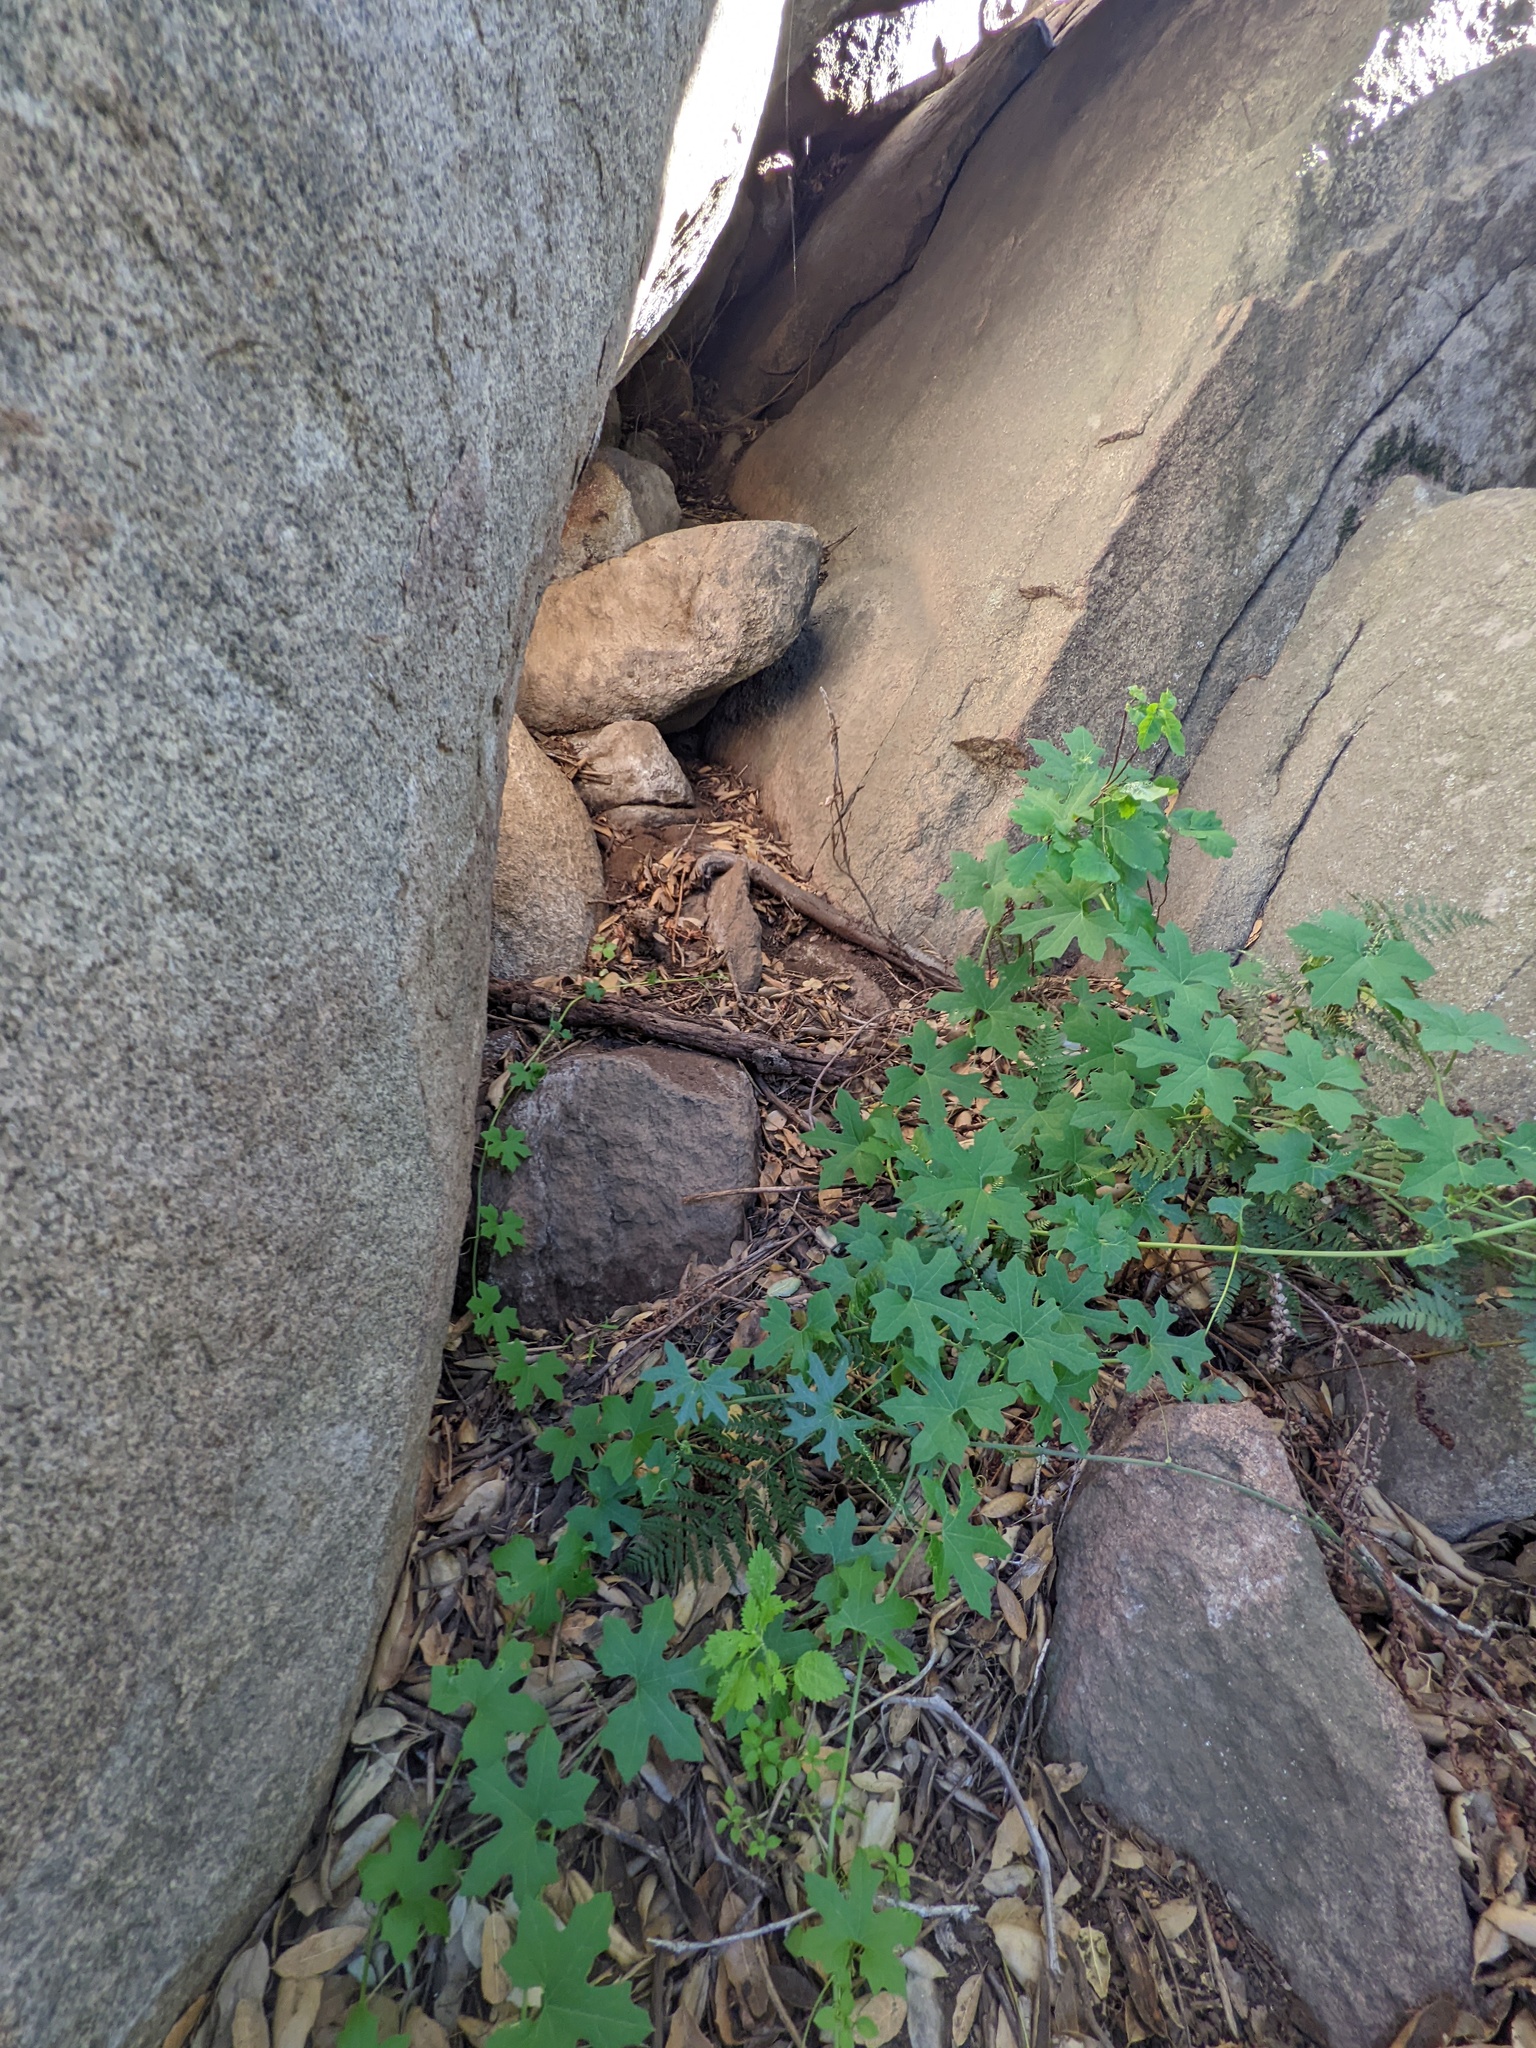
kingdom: Plantae
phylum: Tracheophyta
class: Magnoliopsida
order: Rosales
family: Urticaceae
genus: Hesperocnide
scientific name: Hesperocnide tenella
